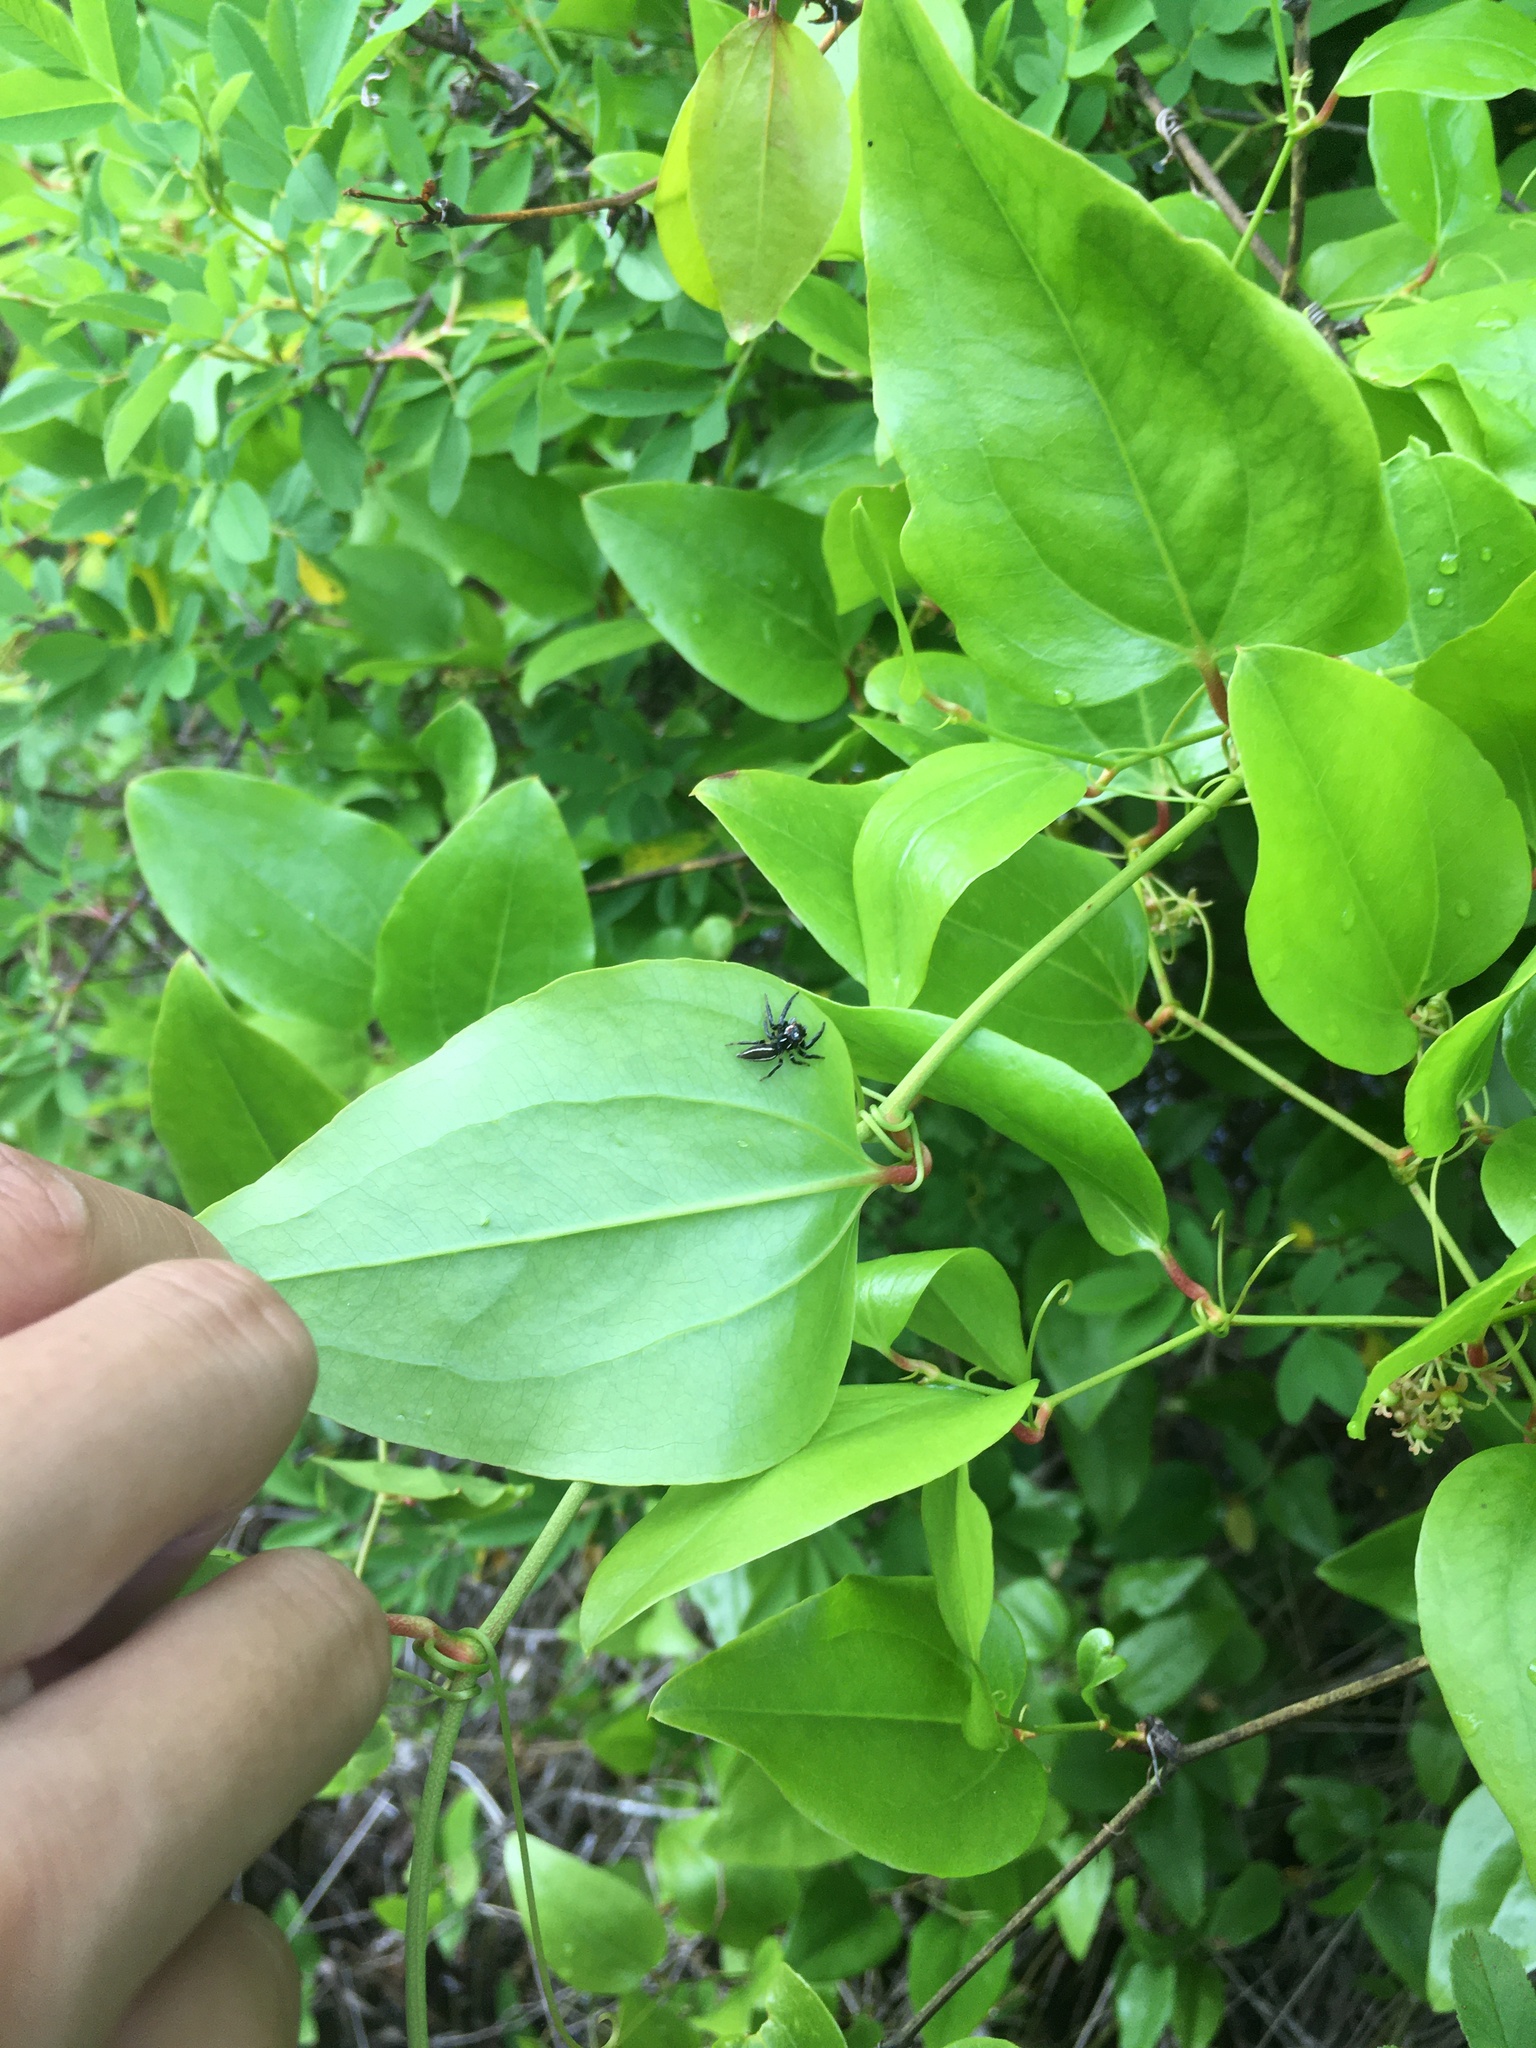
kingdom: Animalia
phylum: Arthropoda
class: Arachnida
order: Araneae
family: Salticidae
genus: Colonus
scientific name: Colonus sylvanus
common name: Jumping spiders
